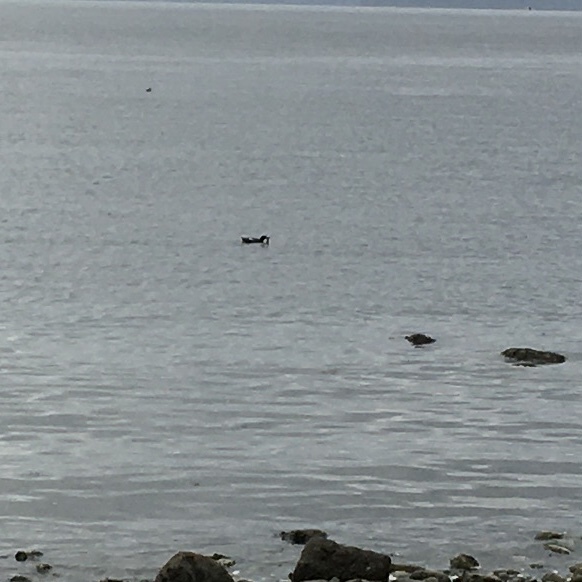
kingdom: Animalia
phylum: Chordata
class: Aves
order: Charadriiformes
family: Alcidae
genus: Cepphus
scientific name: Cepphus columba
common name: Pigeon guillemot
